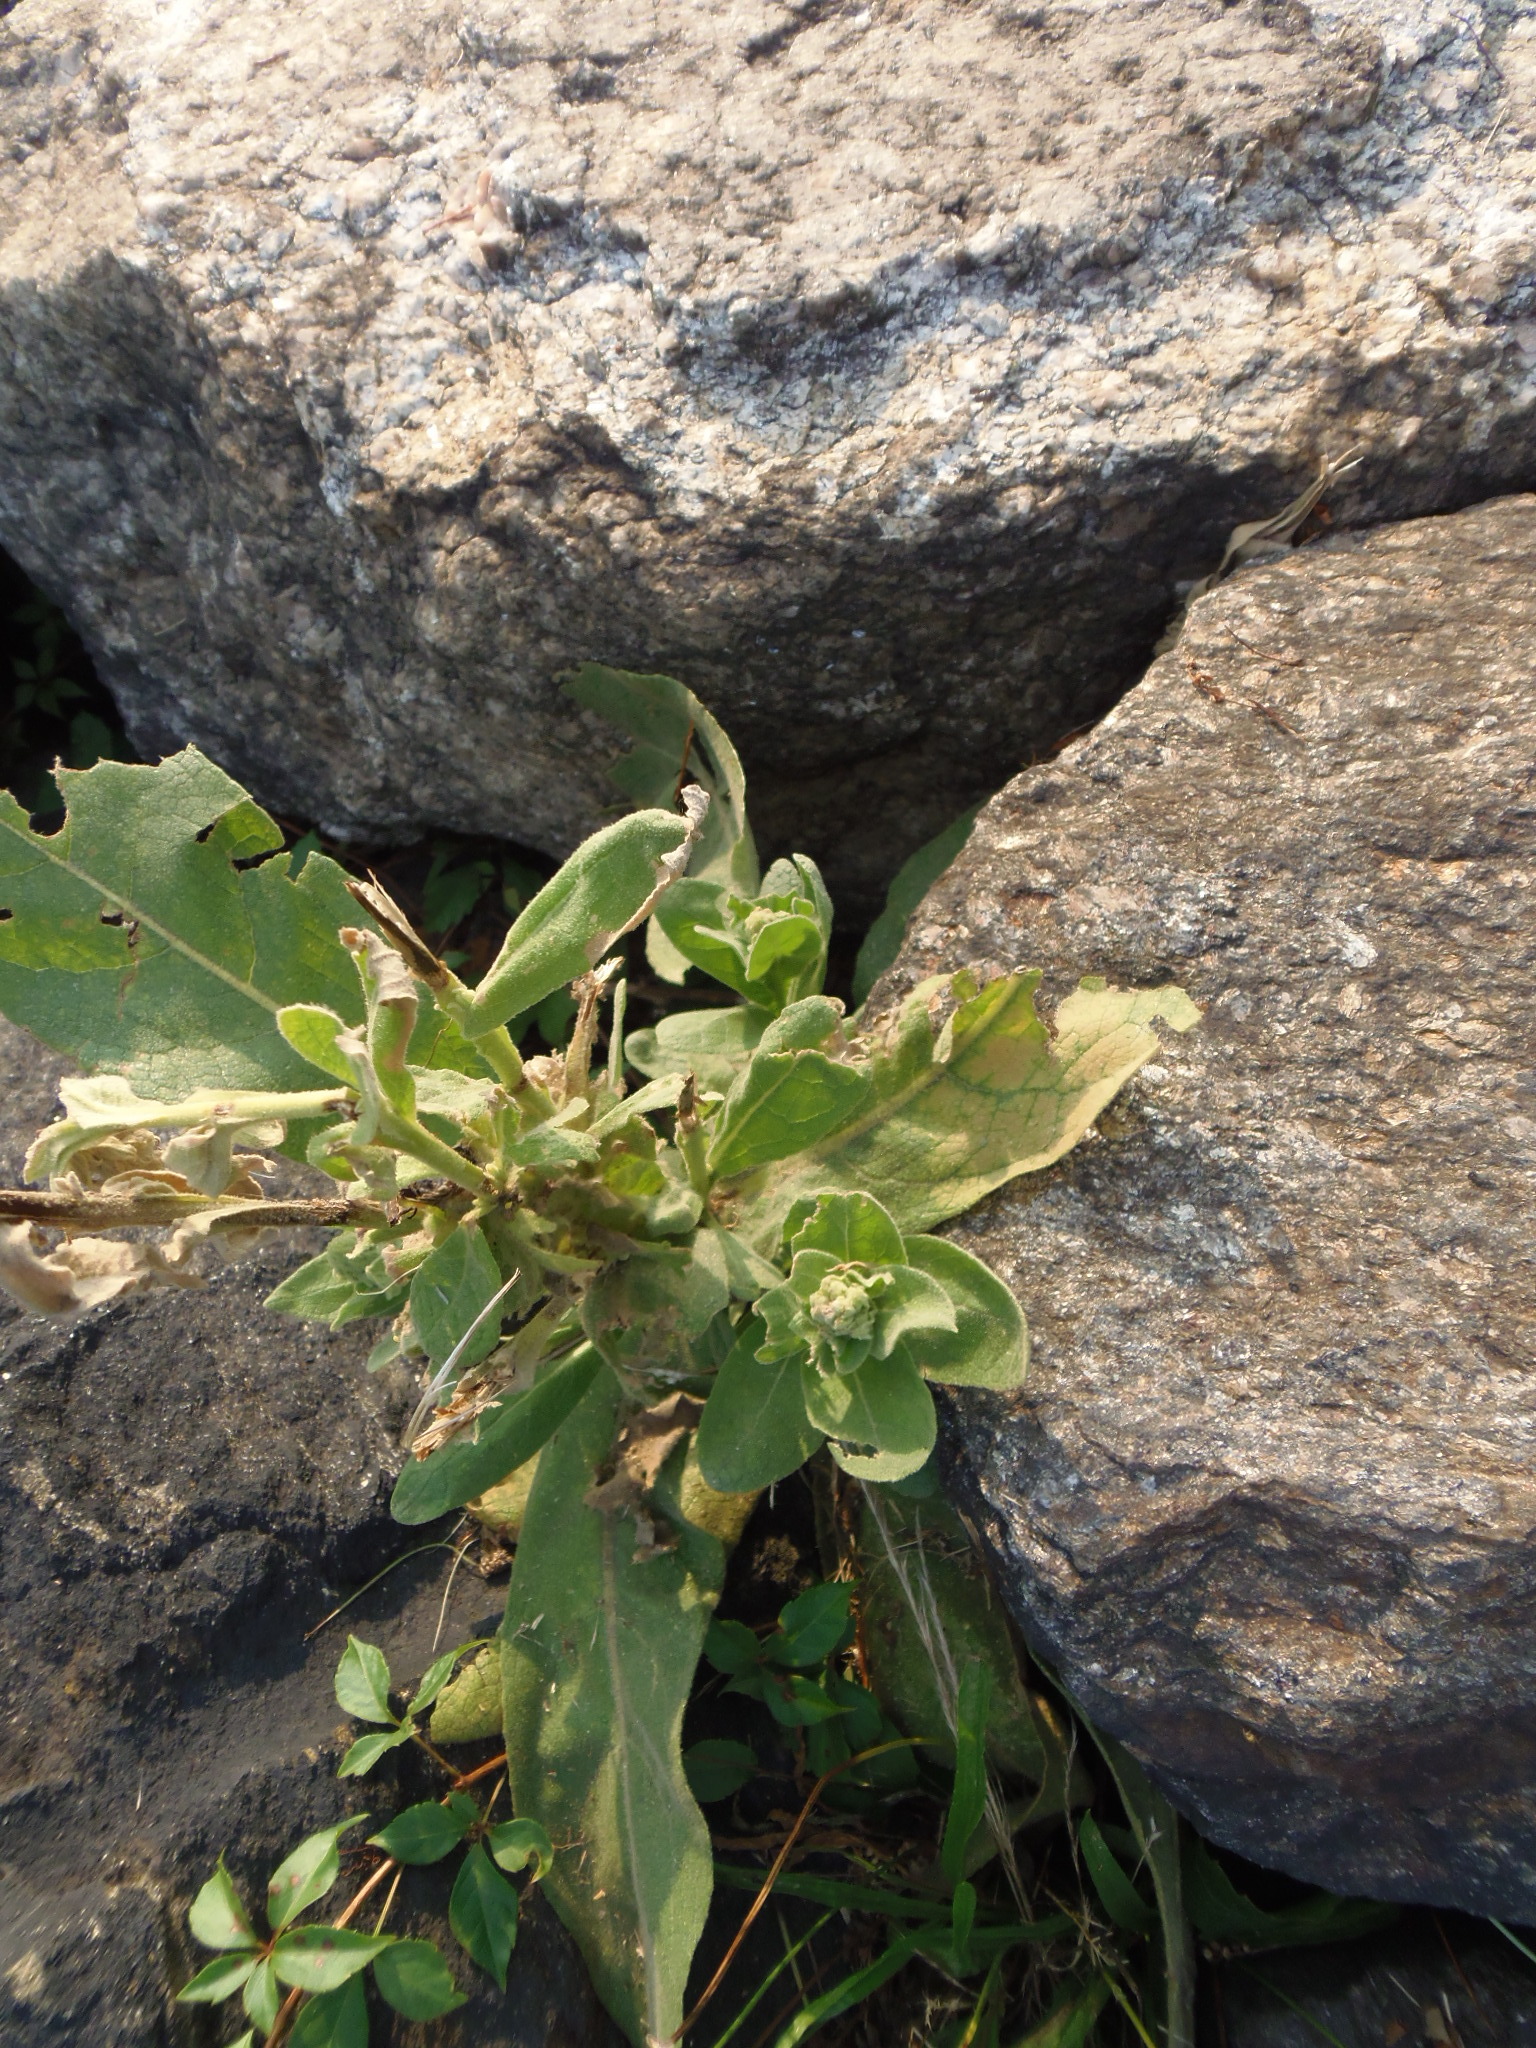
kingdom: Plantae
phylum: Tracheophyta
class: Magnoliopsida
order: Lamiales
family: Scrophulariaceae
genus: Verbascum
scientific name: Verbascum thapsus
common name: Common mullein
